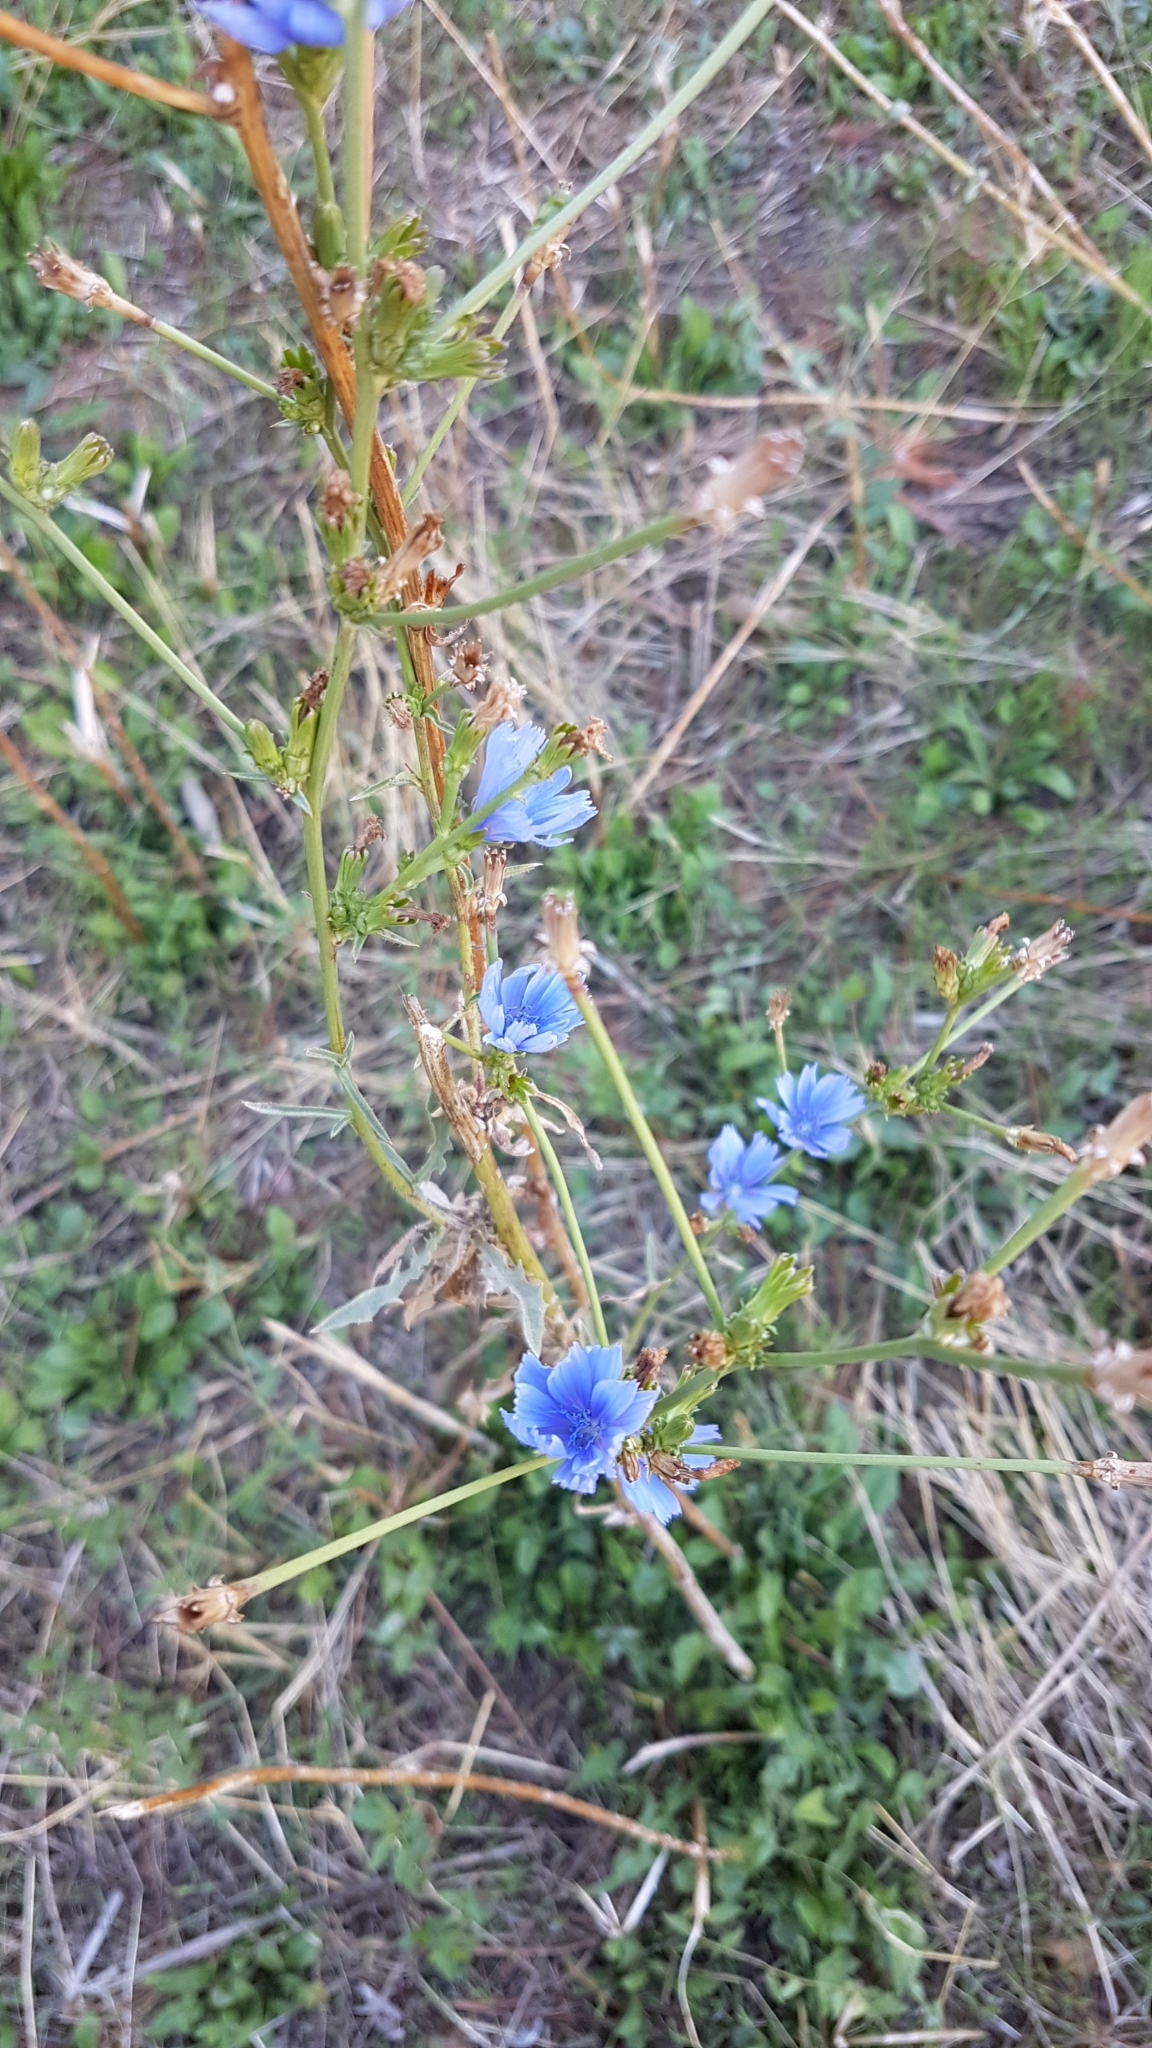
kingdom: Plantae
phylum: Tracheophyta
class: Magnoliopsida
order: Asterales
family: Asteraceae
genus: Cichorium
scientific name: Cichorium intybus
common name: Chicory
